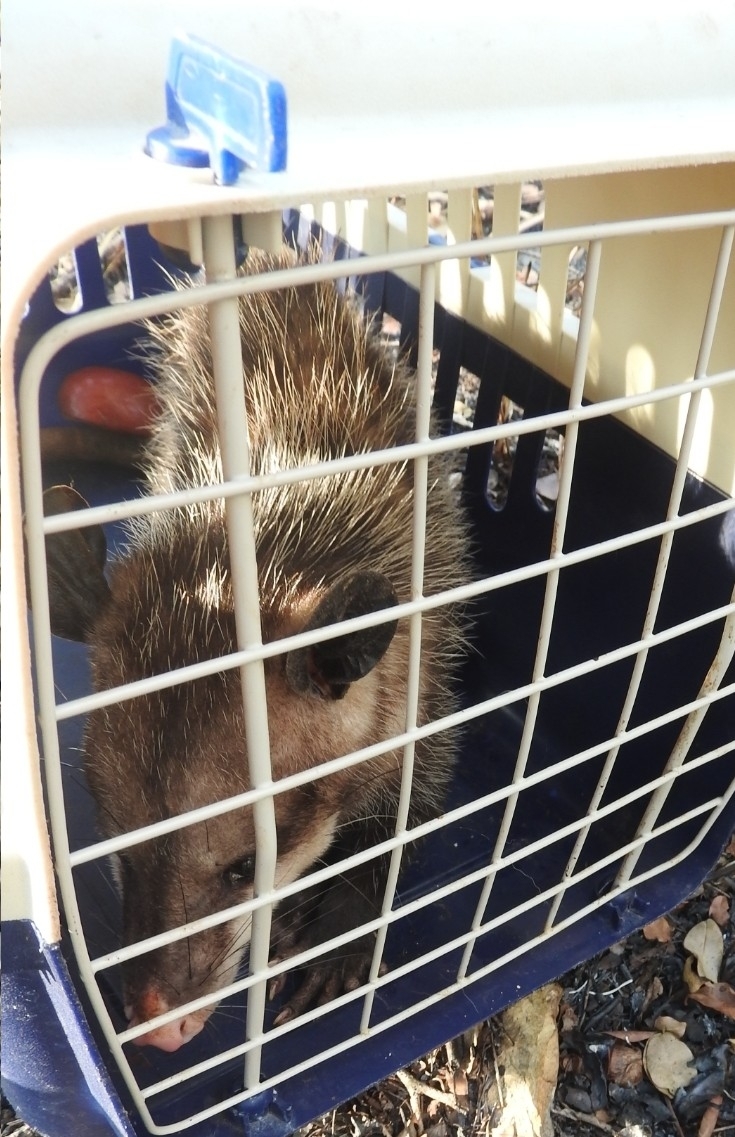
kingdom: Animalia
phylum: Chordata
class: Mammalia
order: Didelphimorphia
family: Didelphidae
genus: Didelphis
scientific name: Didelphis
